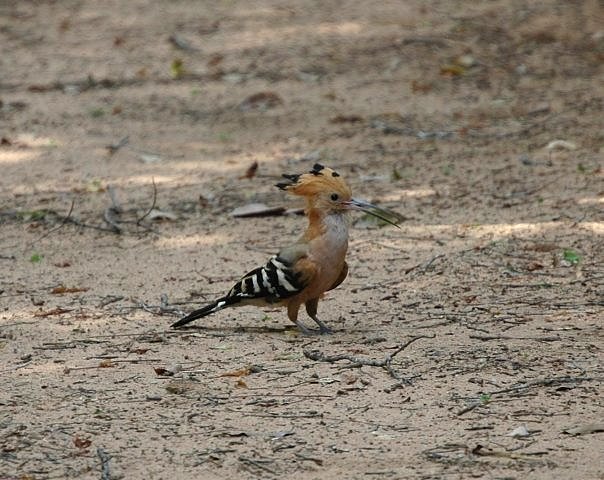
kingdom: Animalia
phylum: Chordata
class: Aves
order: Bucerotiformes
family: Upupidae
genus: Upupa
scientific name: Upupa marginata
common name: Madagascar hoopoe
